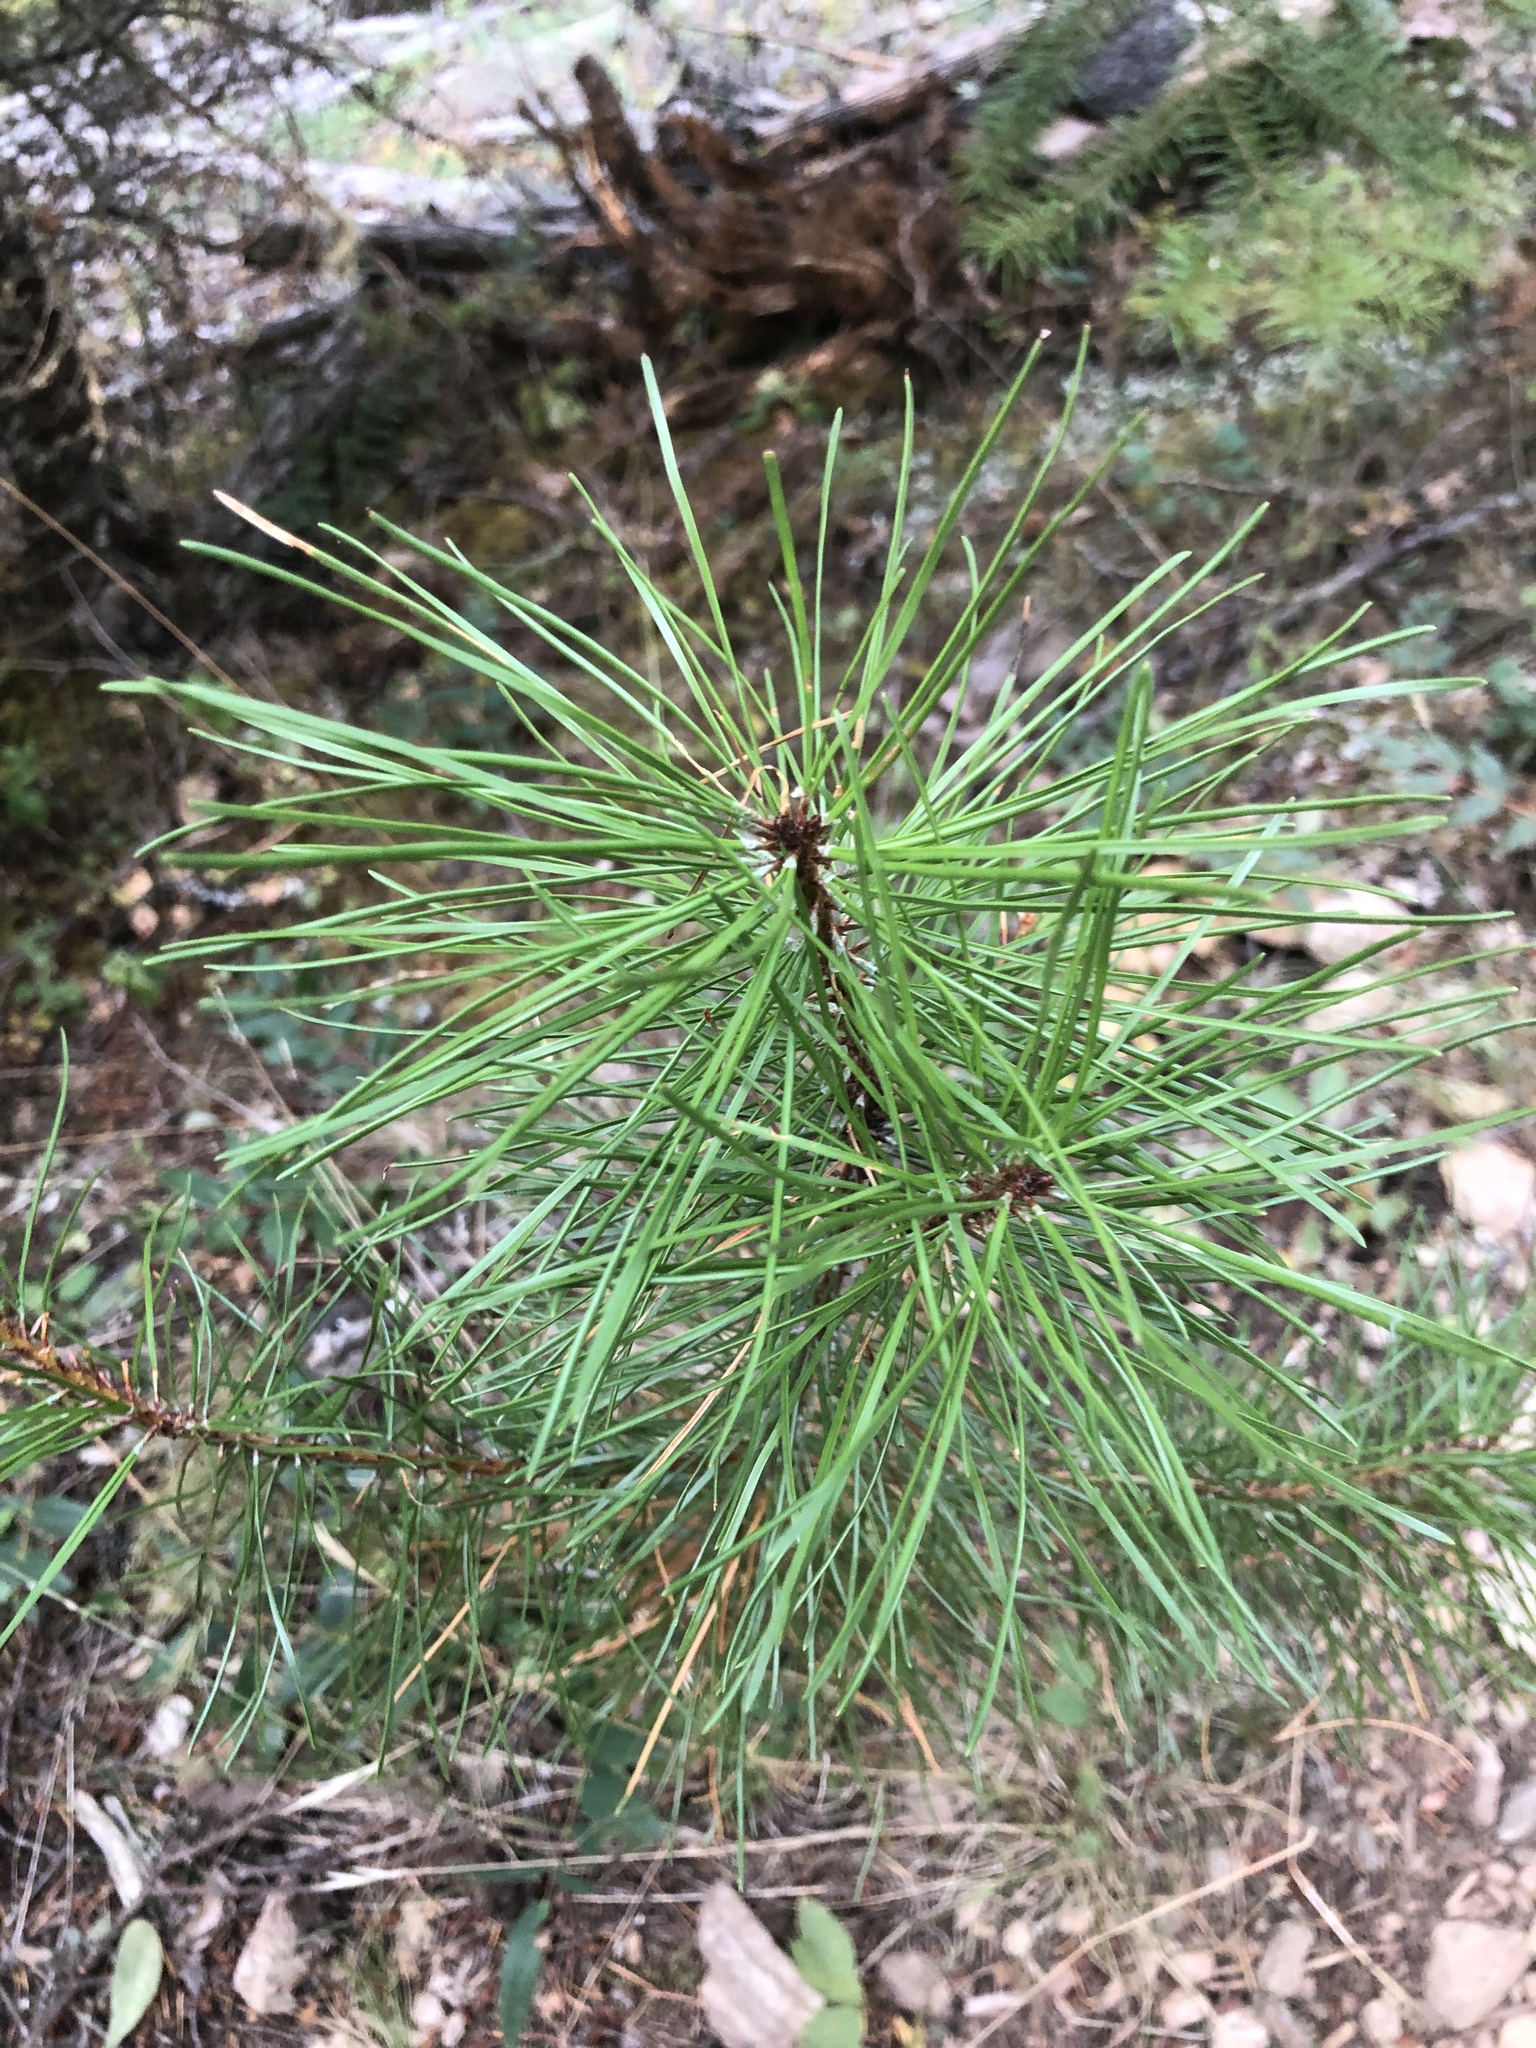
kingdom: Plantae
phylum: Tracheophyta
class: Pinopsida
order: Pinales
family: Pinaceae
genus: Pinus
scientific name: Pinus contorta
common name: Lodgepole pine
